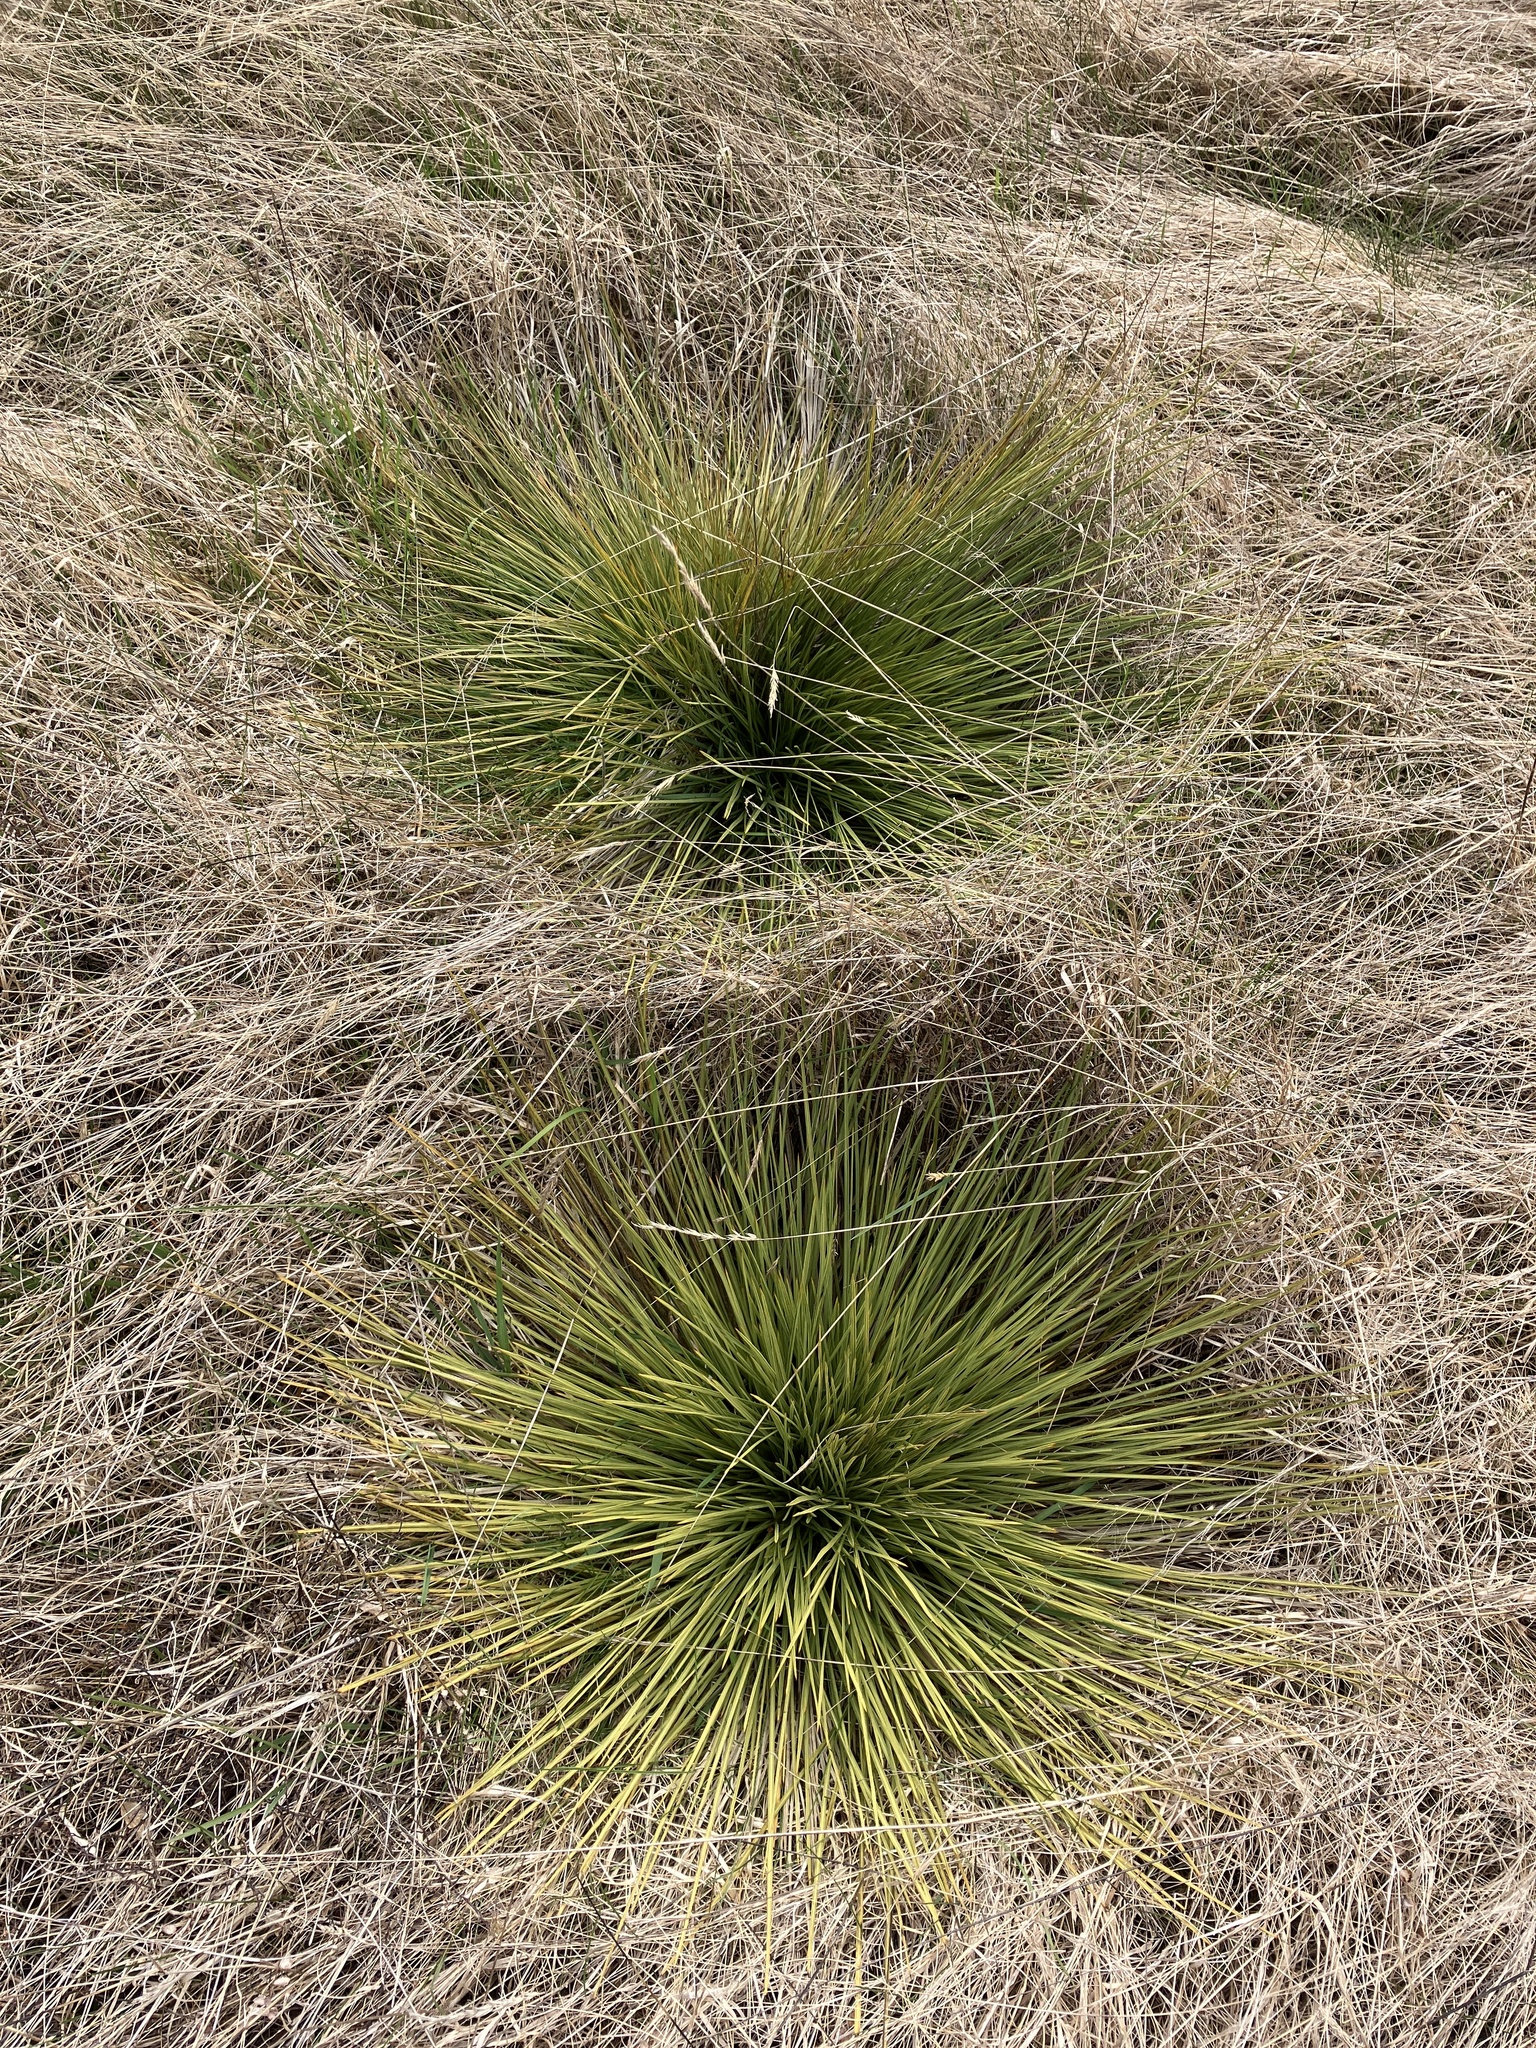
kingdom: Plantae
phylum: Tracheophyta
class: Magnoliopsida
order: Apiales
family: Apiaceae
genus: Aciphylla
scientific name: Aciphylla subflabellata
